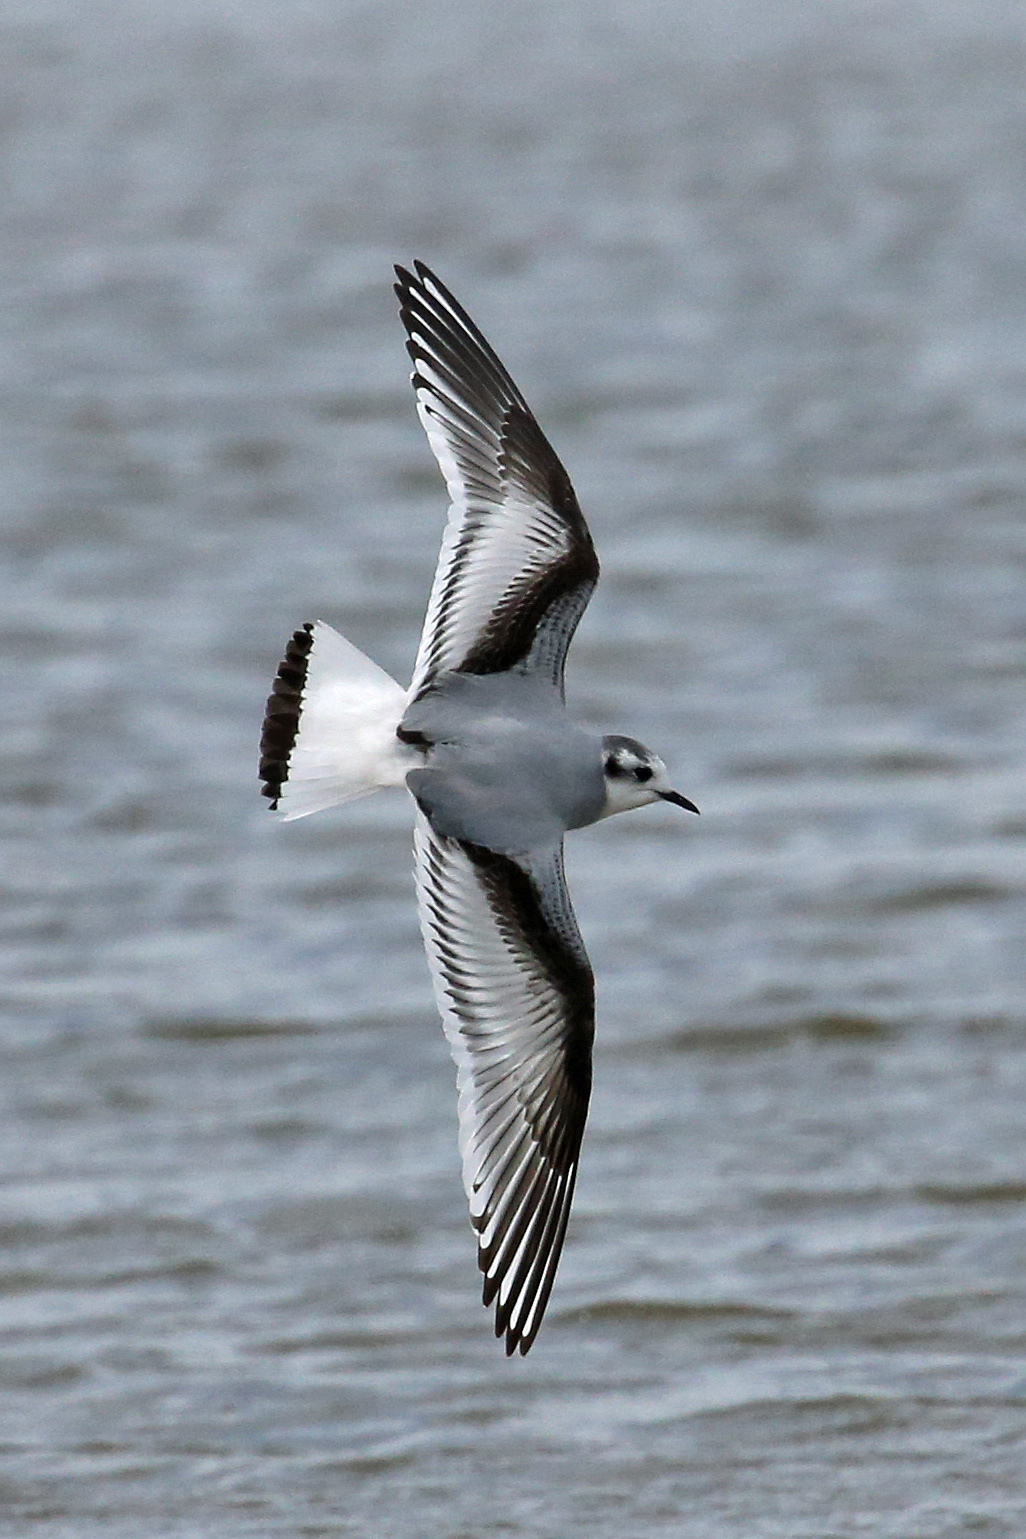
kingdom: Animalia
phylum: Chordata
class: Aves
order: Charadriiformes
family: Laridae
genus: Hydrocoloeus
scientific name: Hydrocoloeus minutus
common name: Little gull
